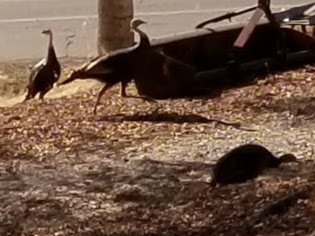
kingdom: Animalia
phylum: Chordata
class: Aves
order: Galliformes
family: Phasianidae
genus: Meleagris
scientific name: Meleagris gallopavo
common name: Wild turkey
